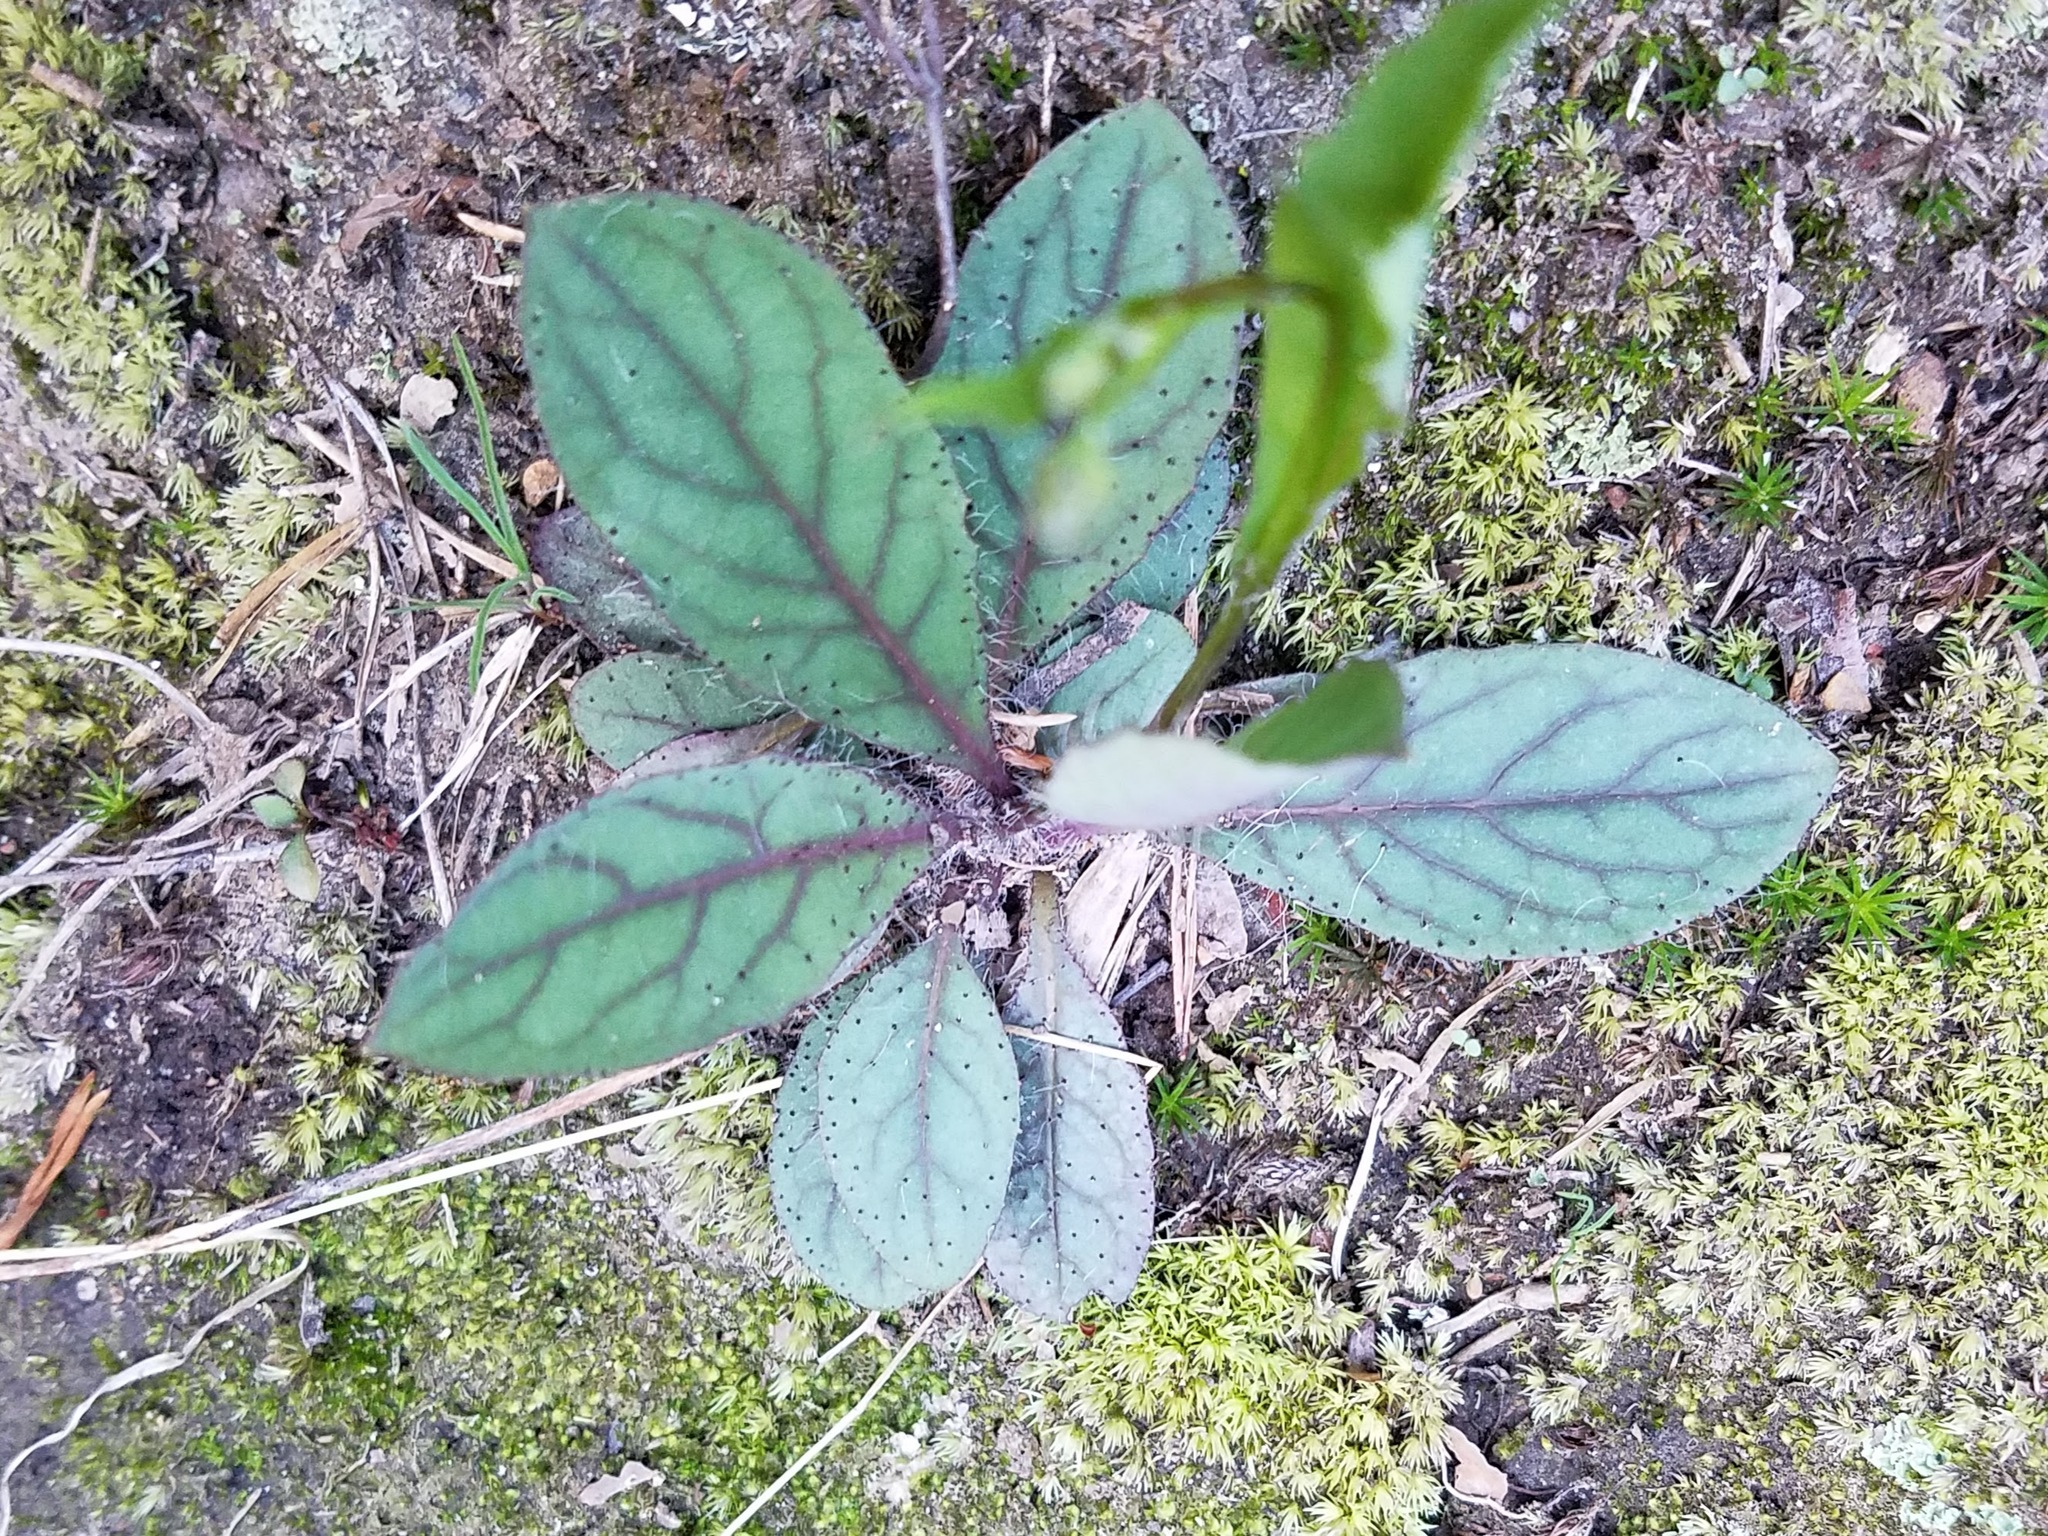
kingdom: Plantae
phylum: Tracheophyta
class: Magnoliopsida
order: Asterales
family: Asteraceae
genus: Hieracium
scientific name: Hieracium venosum
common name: Rattlesnake hawkweed
